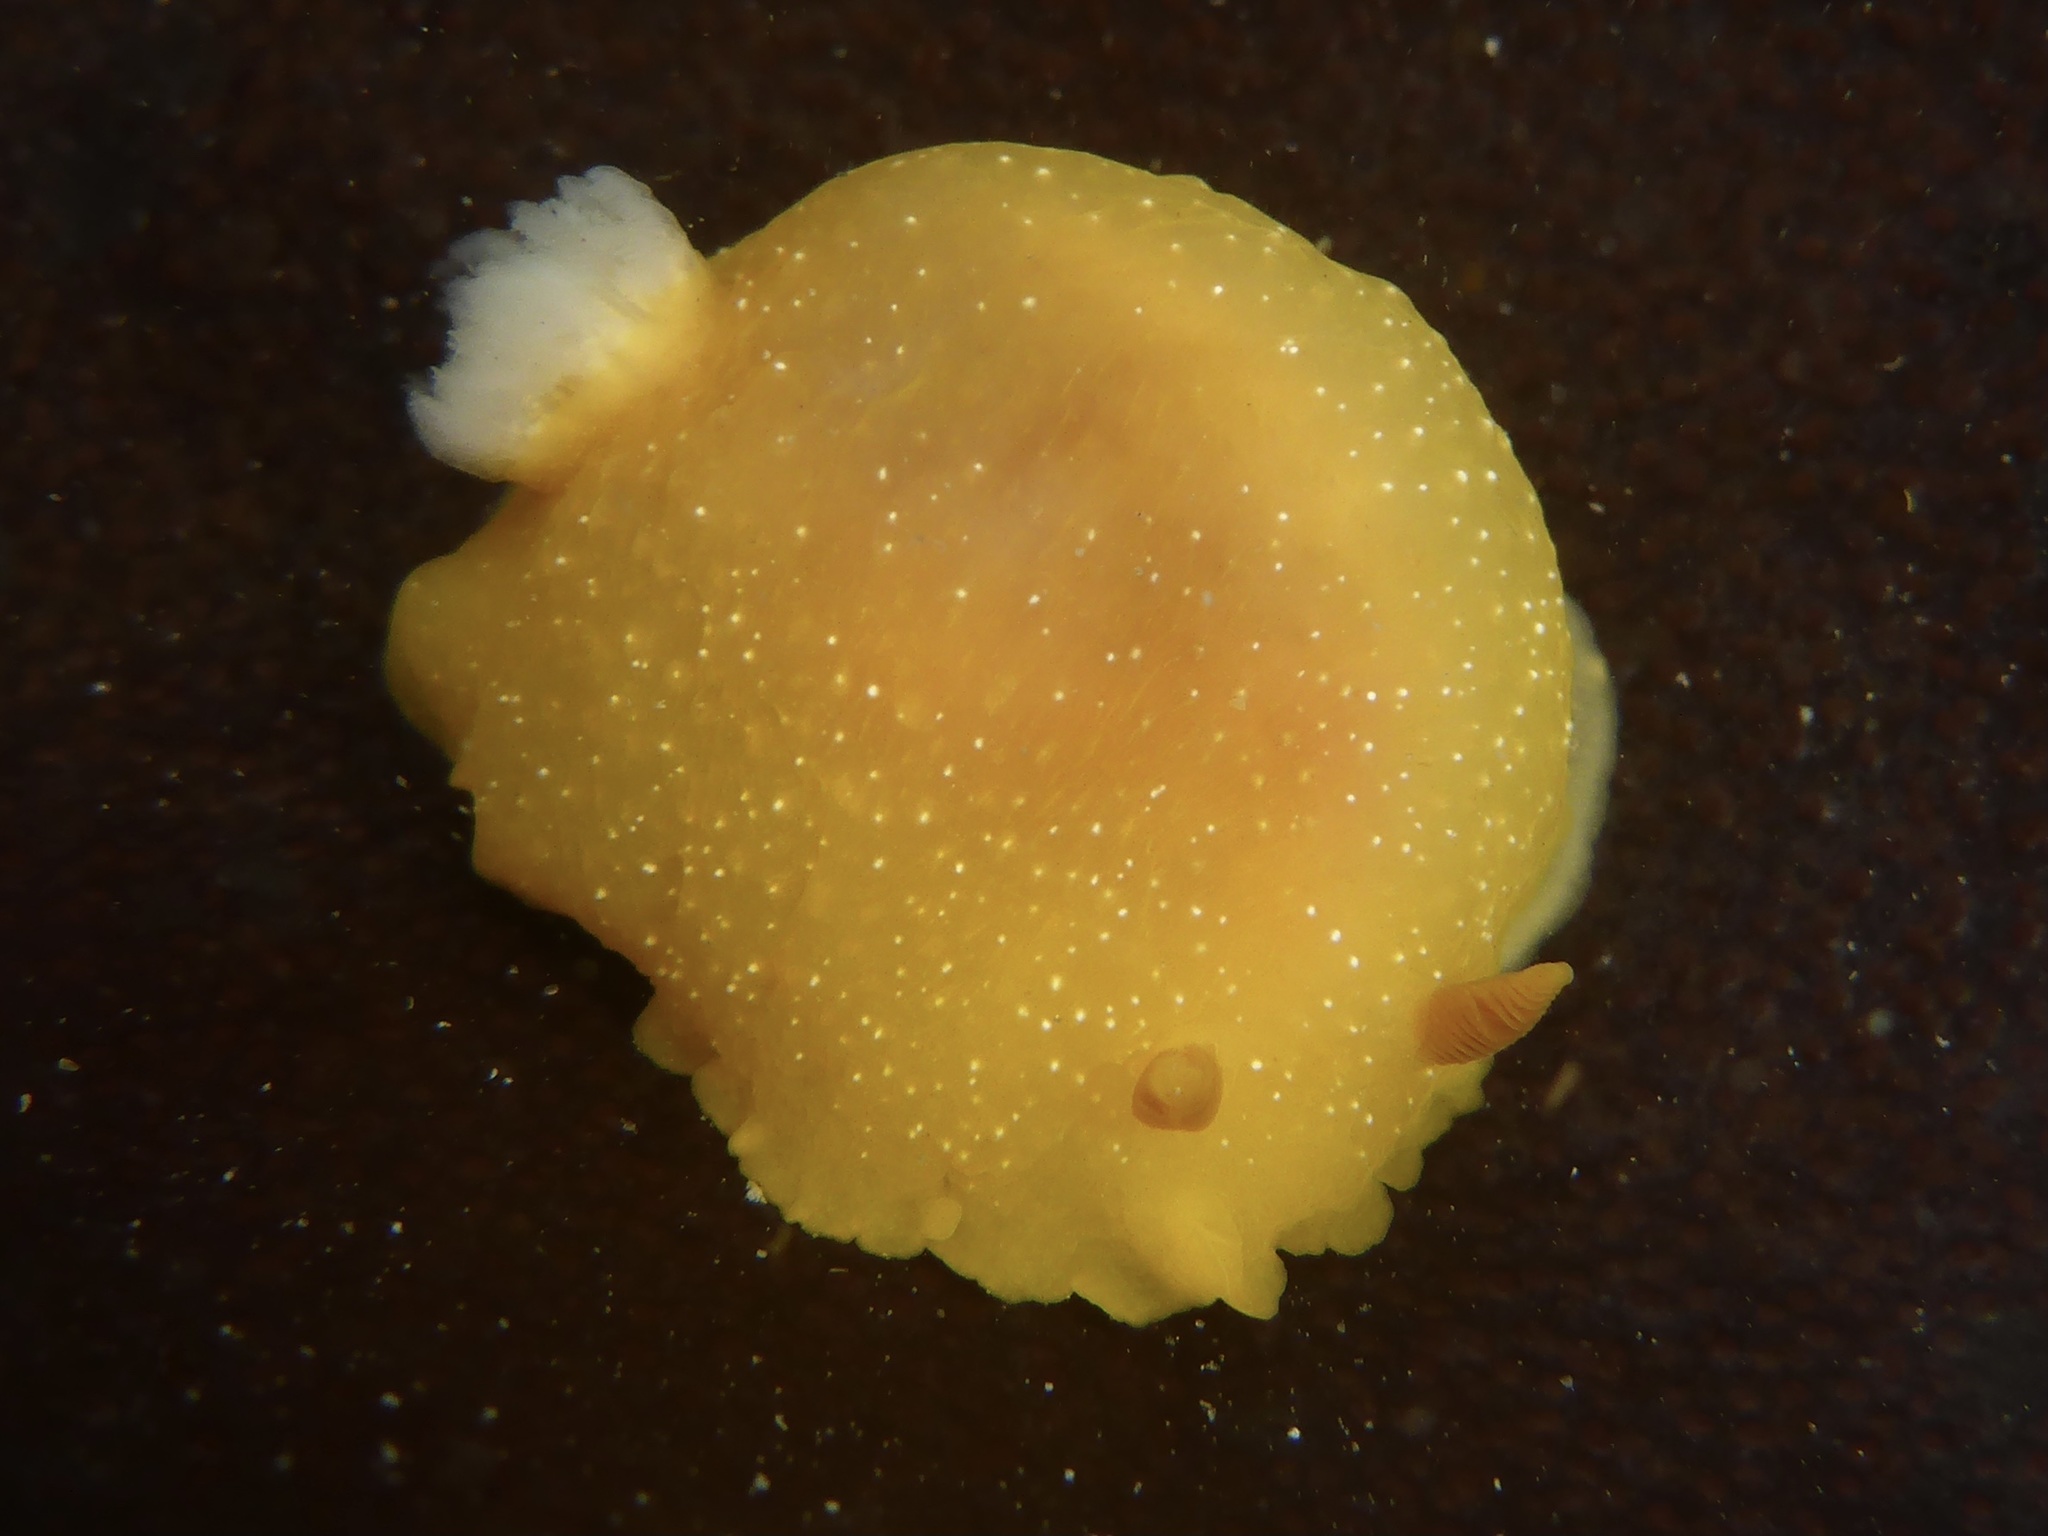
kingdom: Animalia
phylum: Mollusca
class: Gastropoda
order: Nudibranchia
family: Dendrodorididae
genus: Doriopsilla
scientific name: Doriopsilla fulva
